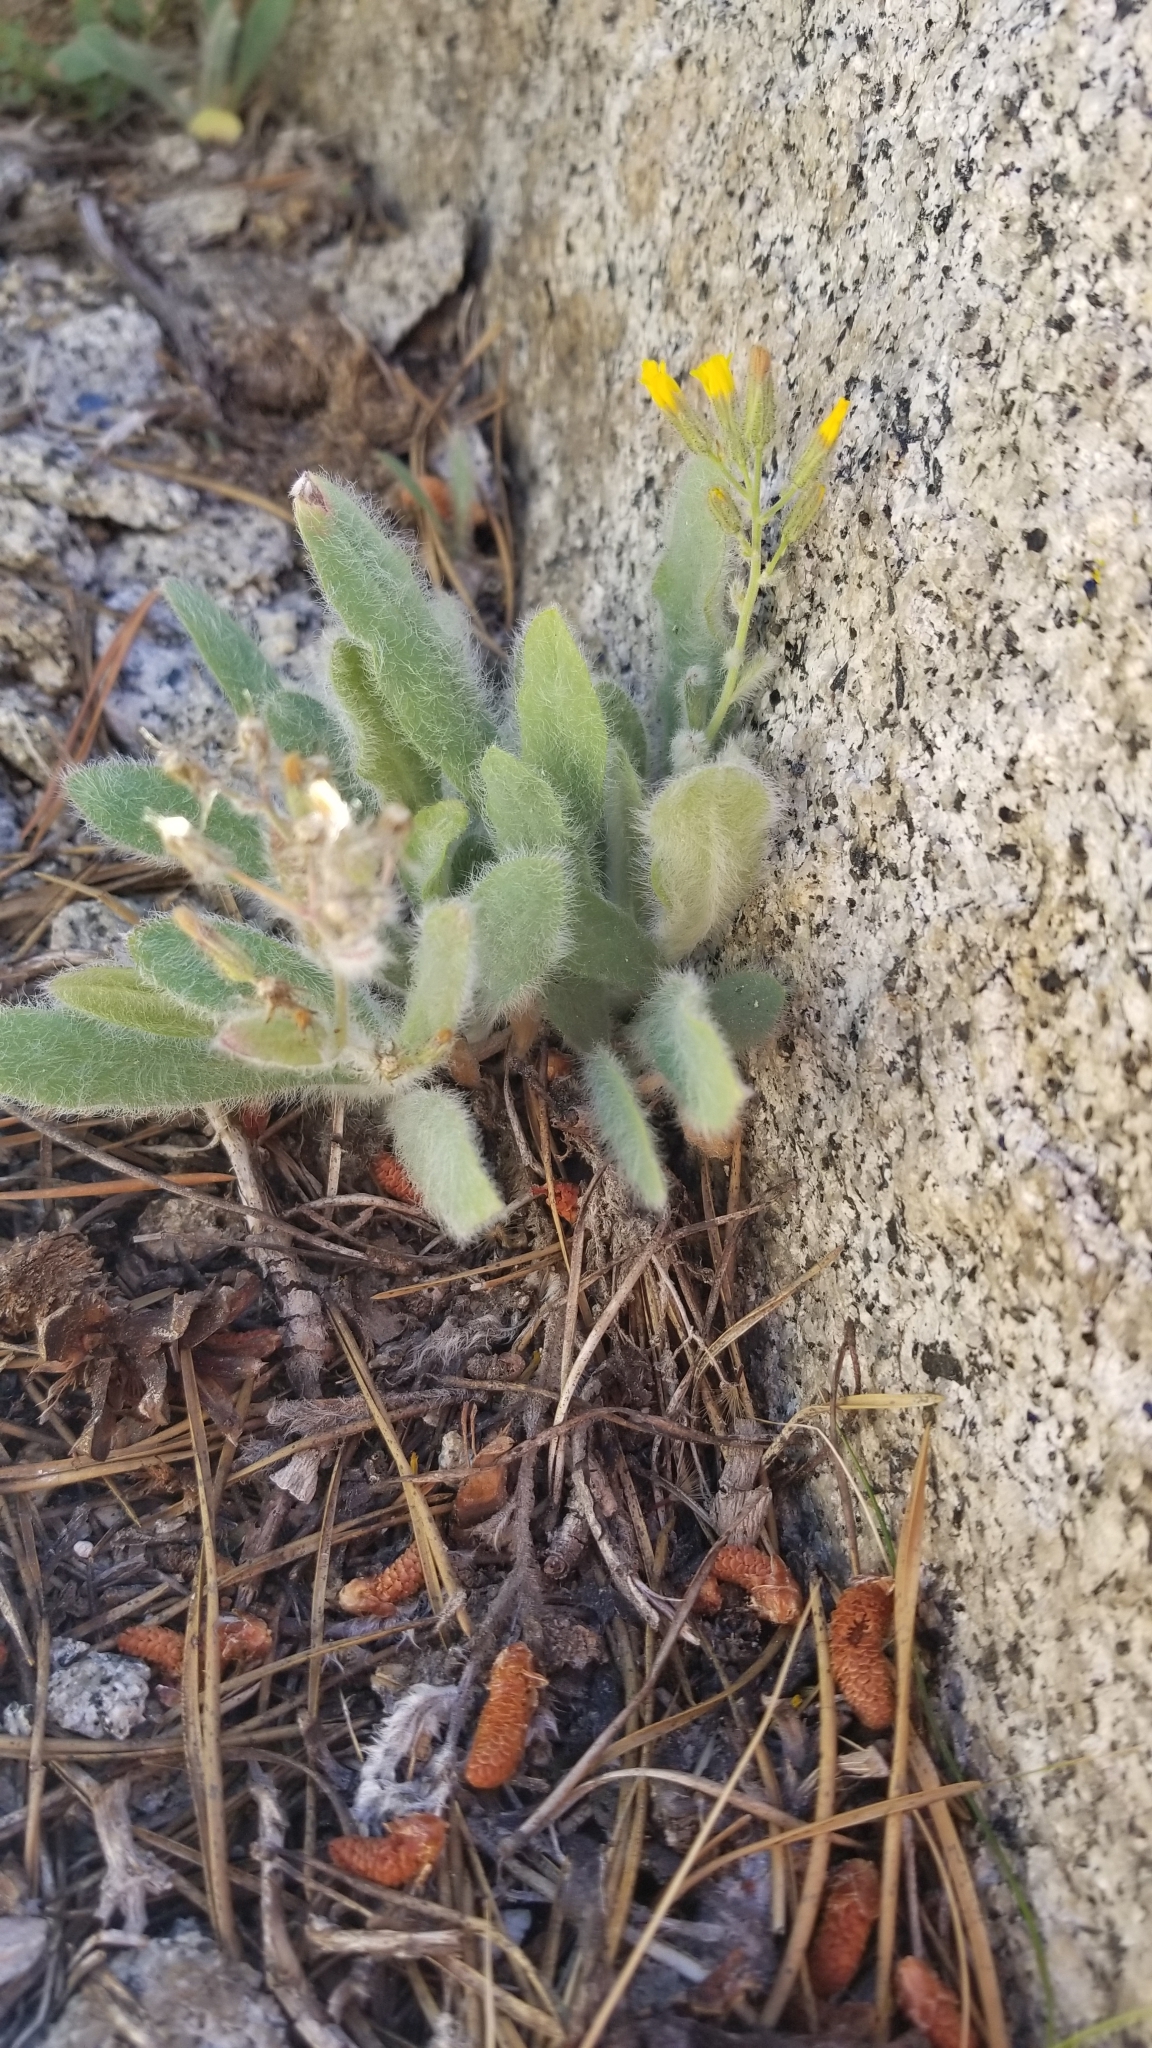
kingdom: Plantae
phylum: Tracheophyta
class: Magnoliopsida
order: Asterales
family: Asteraceae
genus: Hieracium
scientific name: Hieracium horridum
